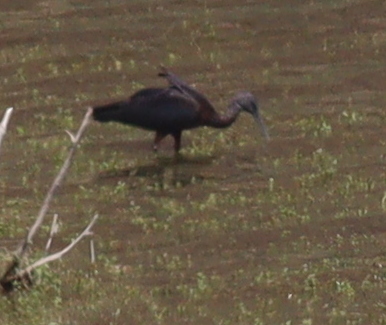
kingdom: Animalia
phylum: Chordata
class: Aves
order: Pelecaniformes
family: Threskiornithidae
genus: Plegadis
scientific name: Plegadis falcinellus
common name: Glossy ibis
